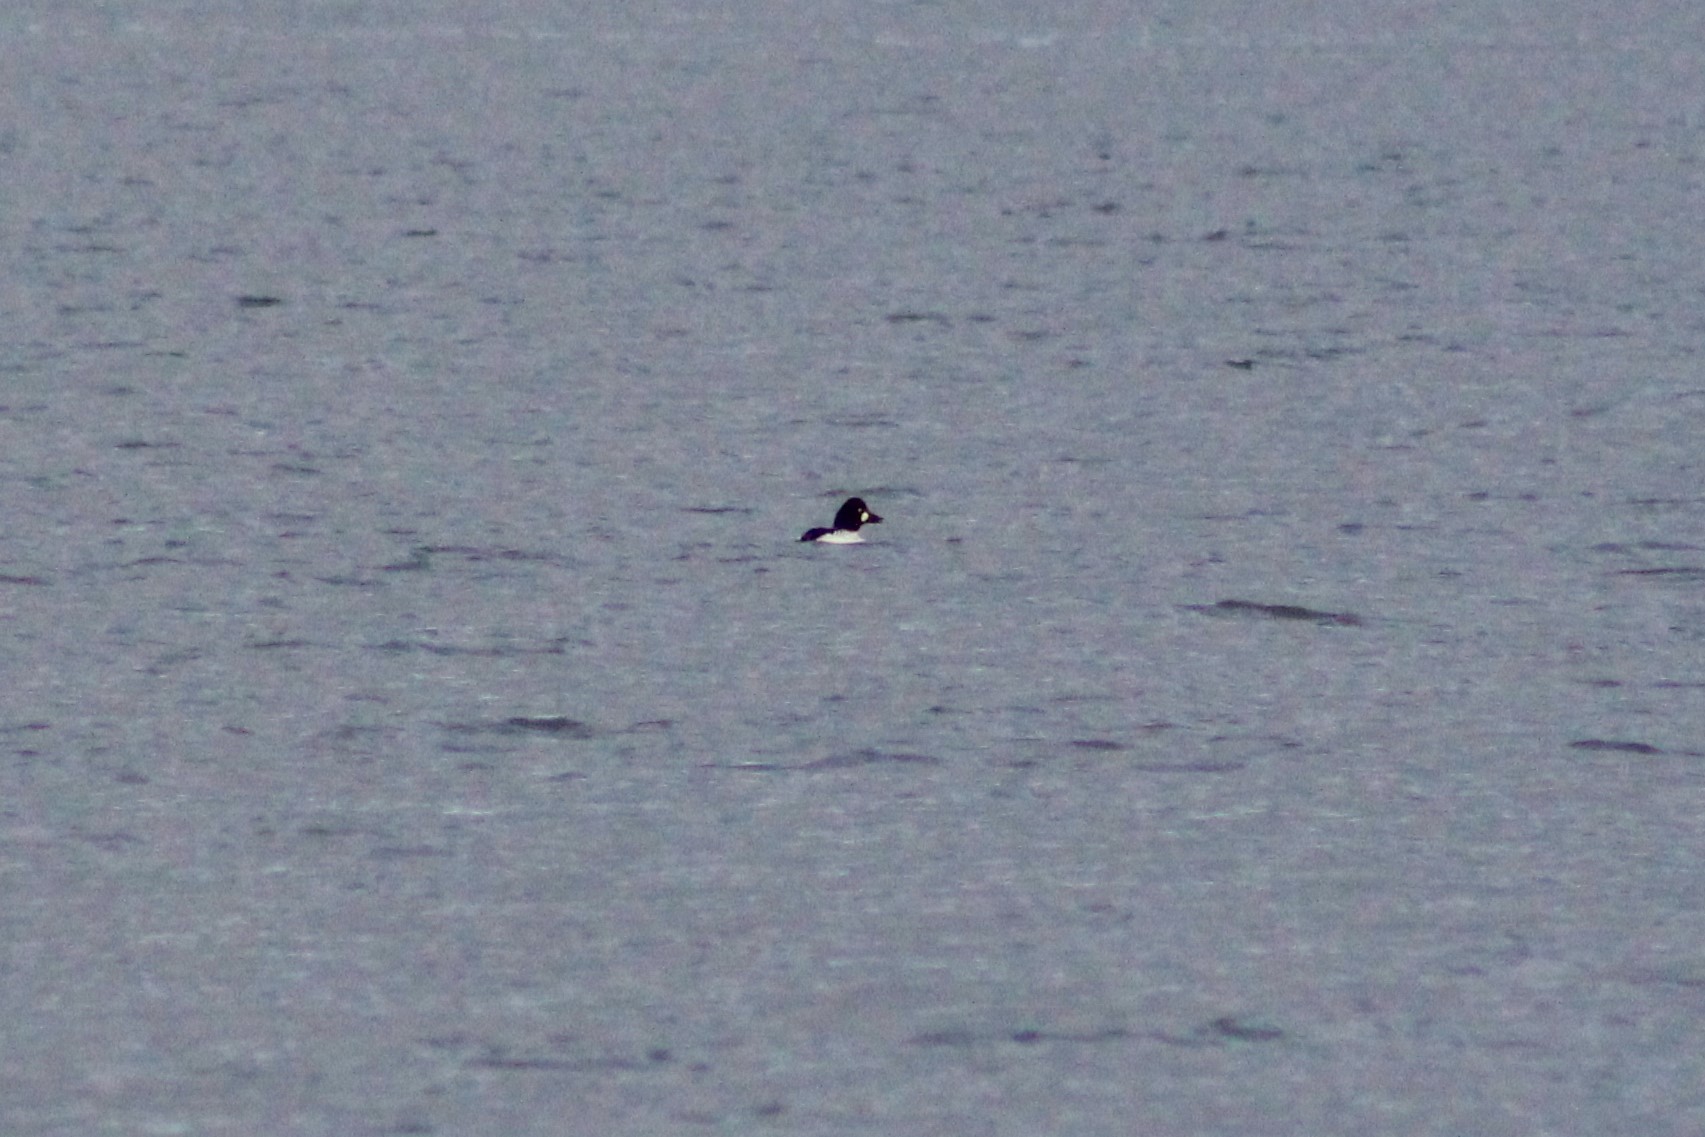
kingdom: Animalia
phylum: Chordata
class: Aves
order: Anseriformes
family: Anatidae
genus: Bucephala
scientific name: Bucephala clangula
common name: Common goldeneye
